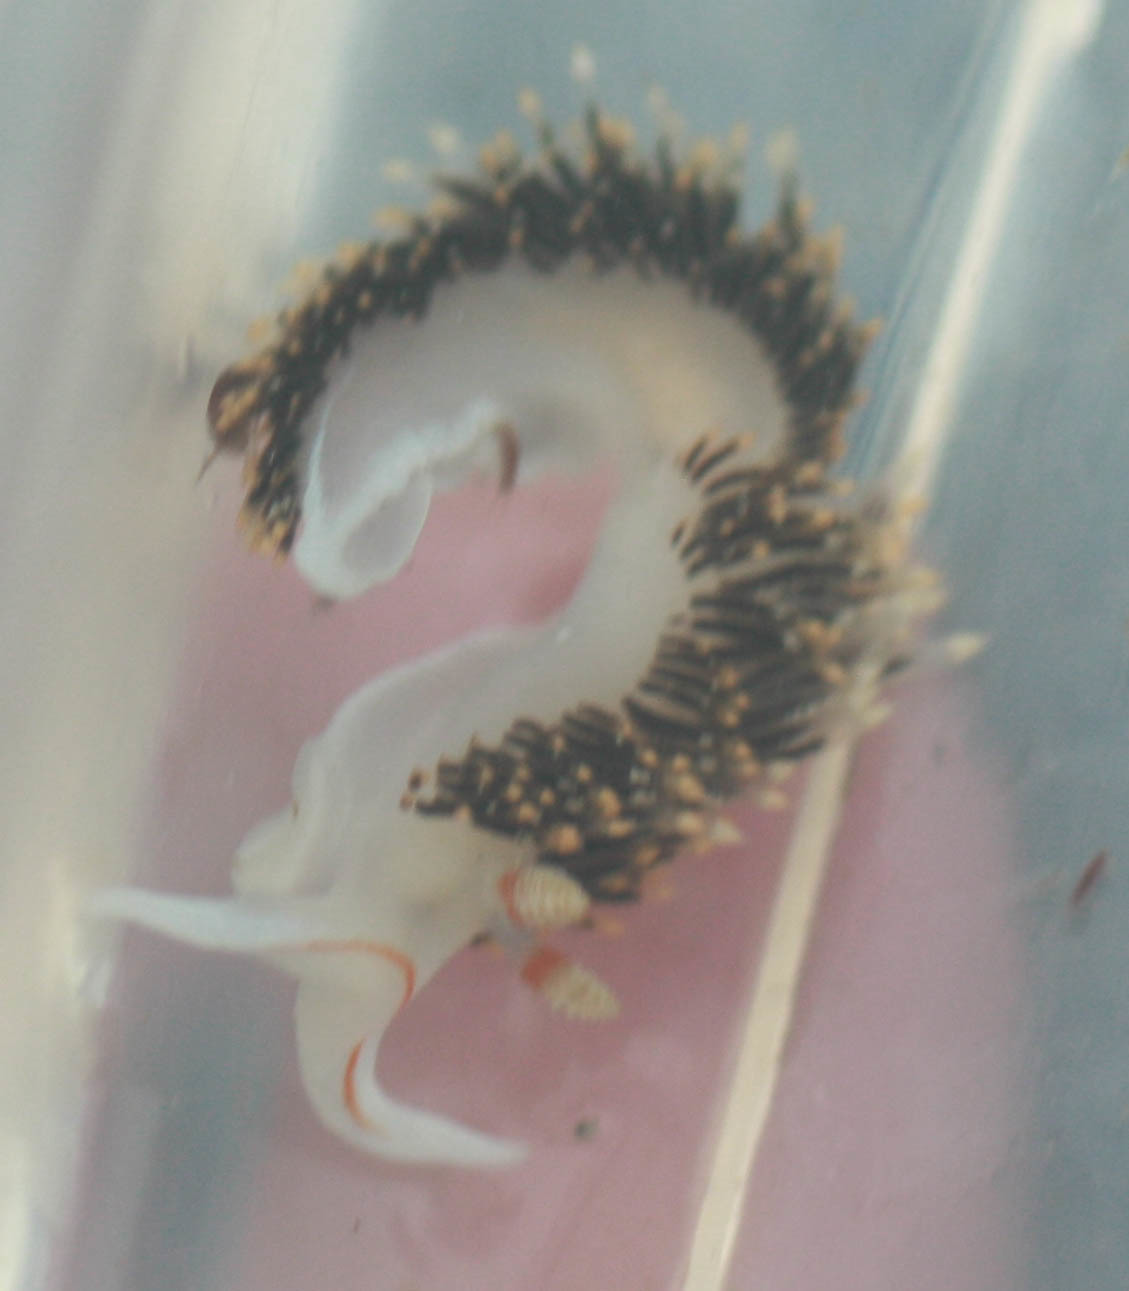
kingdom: Animalia
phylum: Mollusca
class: Gastropoda
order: Nudibranchia
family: Facelinidae
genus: Phidiana
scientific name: Phidiana hiltoni
